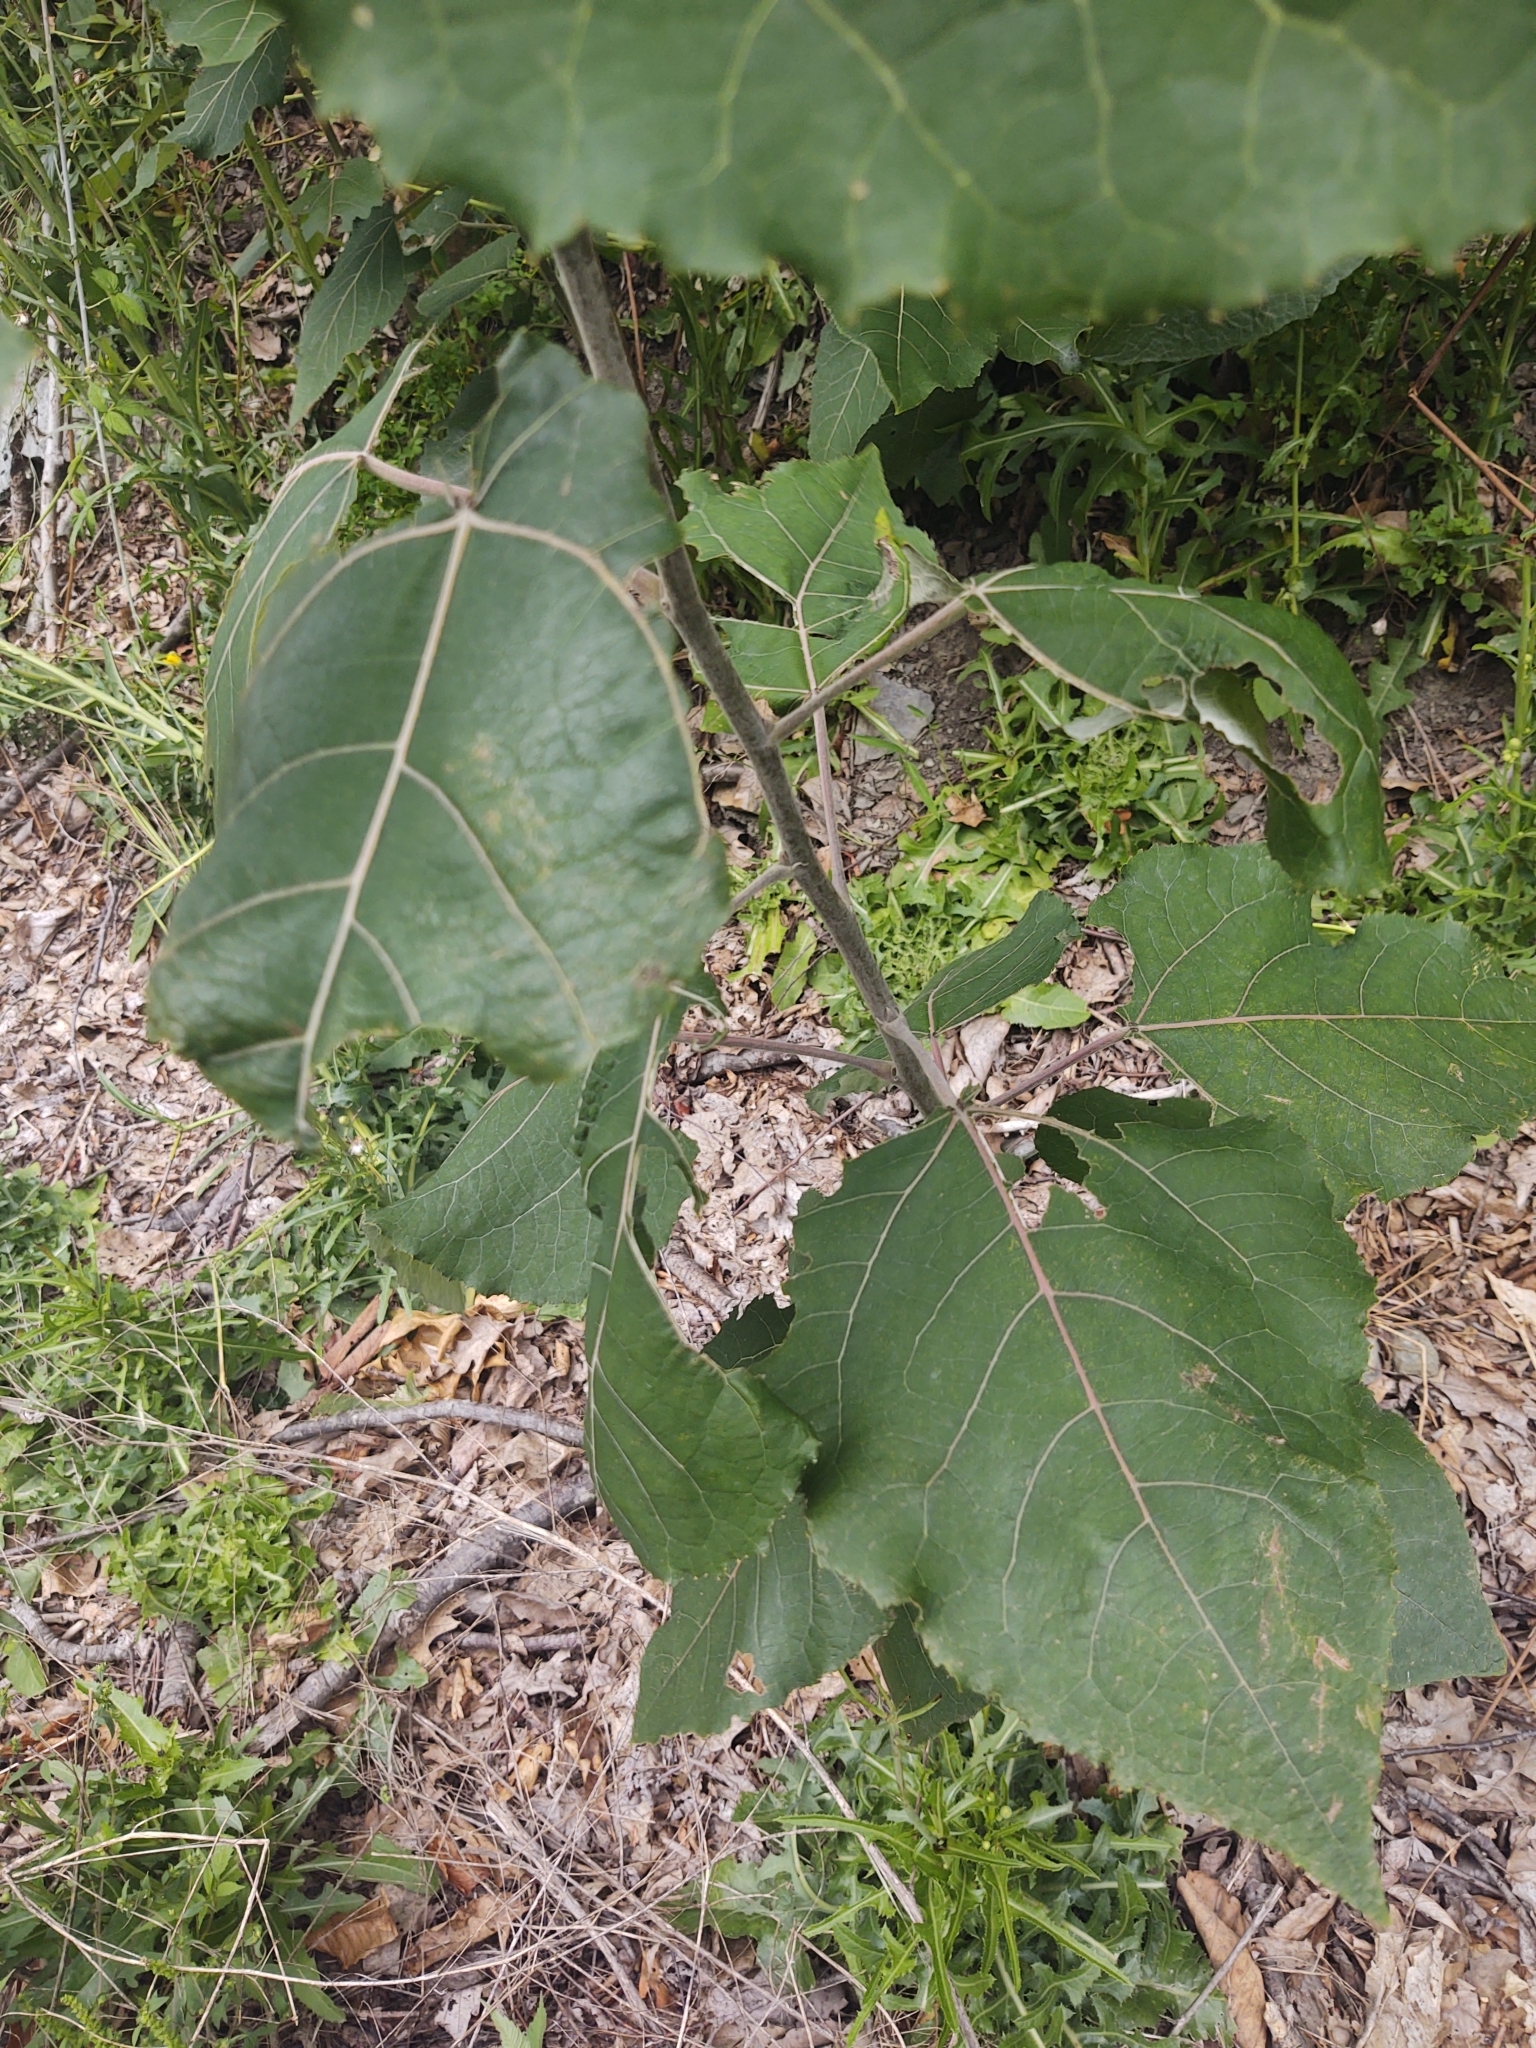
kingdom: Plantae
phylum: Tracheophyta
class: Magnoliopsida
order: Asterales
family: Asteraceae
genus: Arctium
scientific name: Arctium
